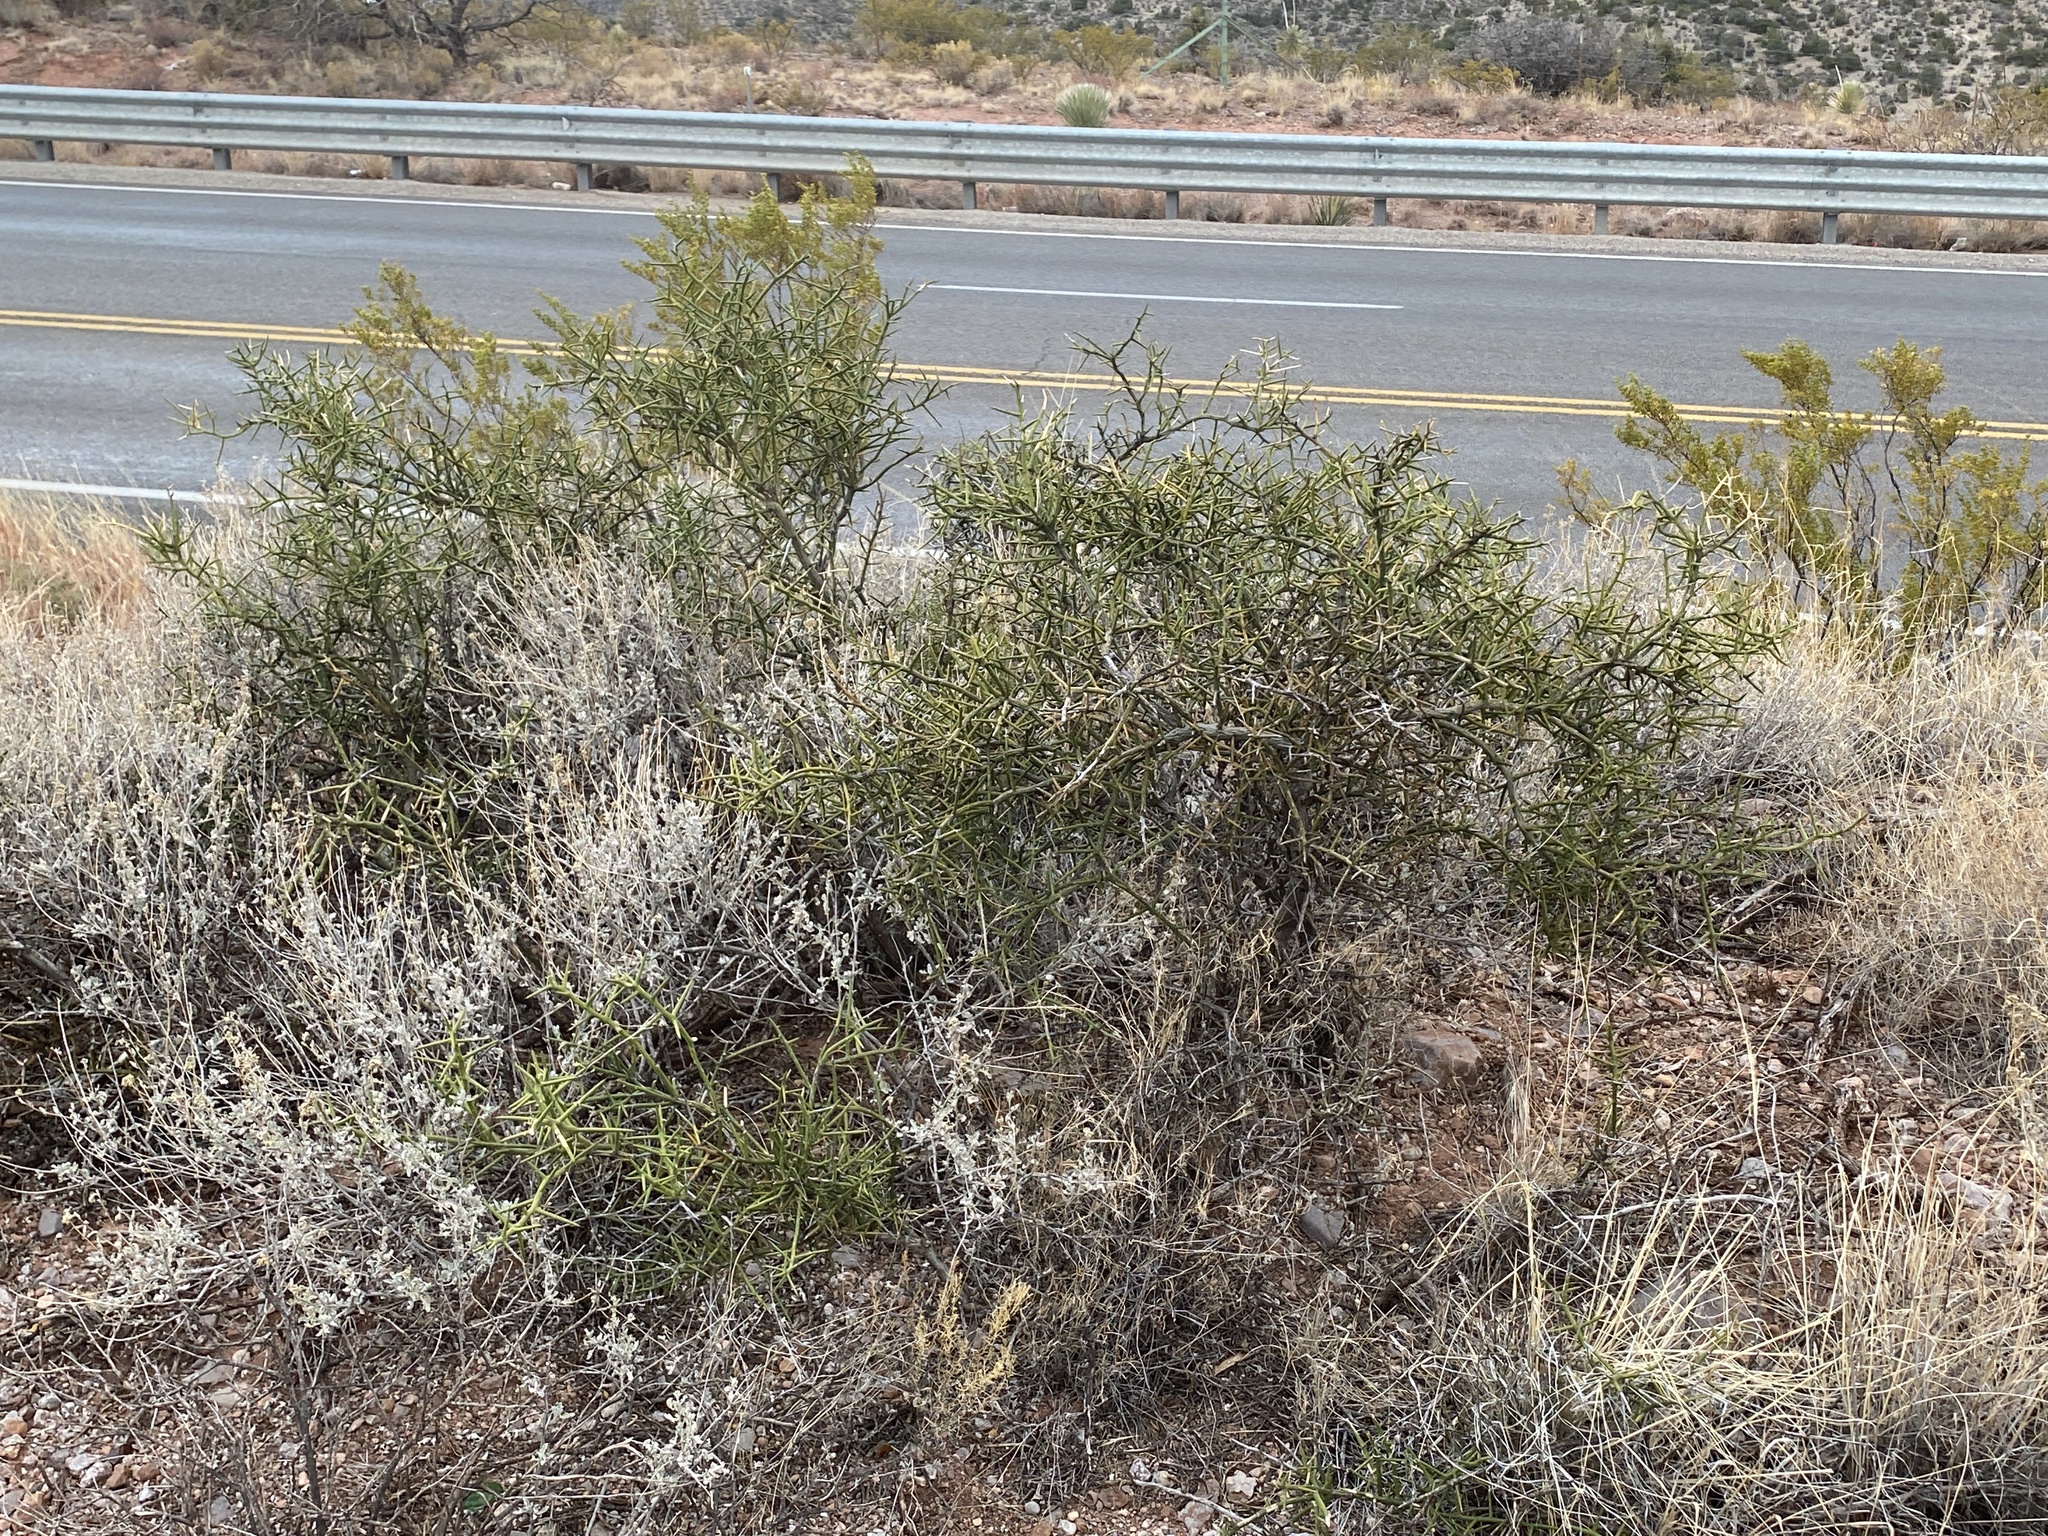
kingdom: Plantae
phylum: Tracheophyta
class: Magnoliopsida
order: Brassicales
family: Koeberliniaceae
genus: Koeberlinia
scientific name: Koeberlinia spinosa
